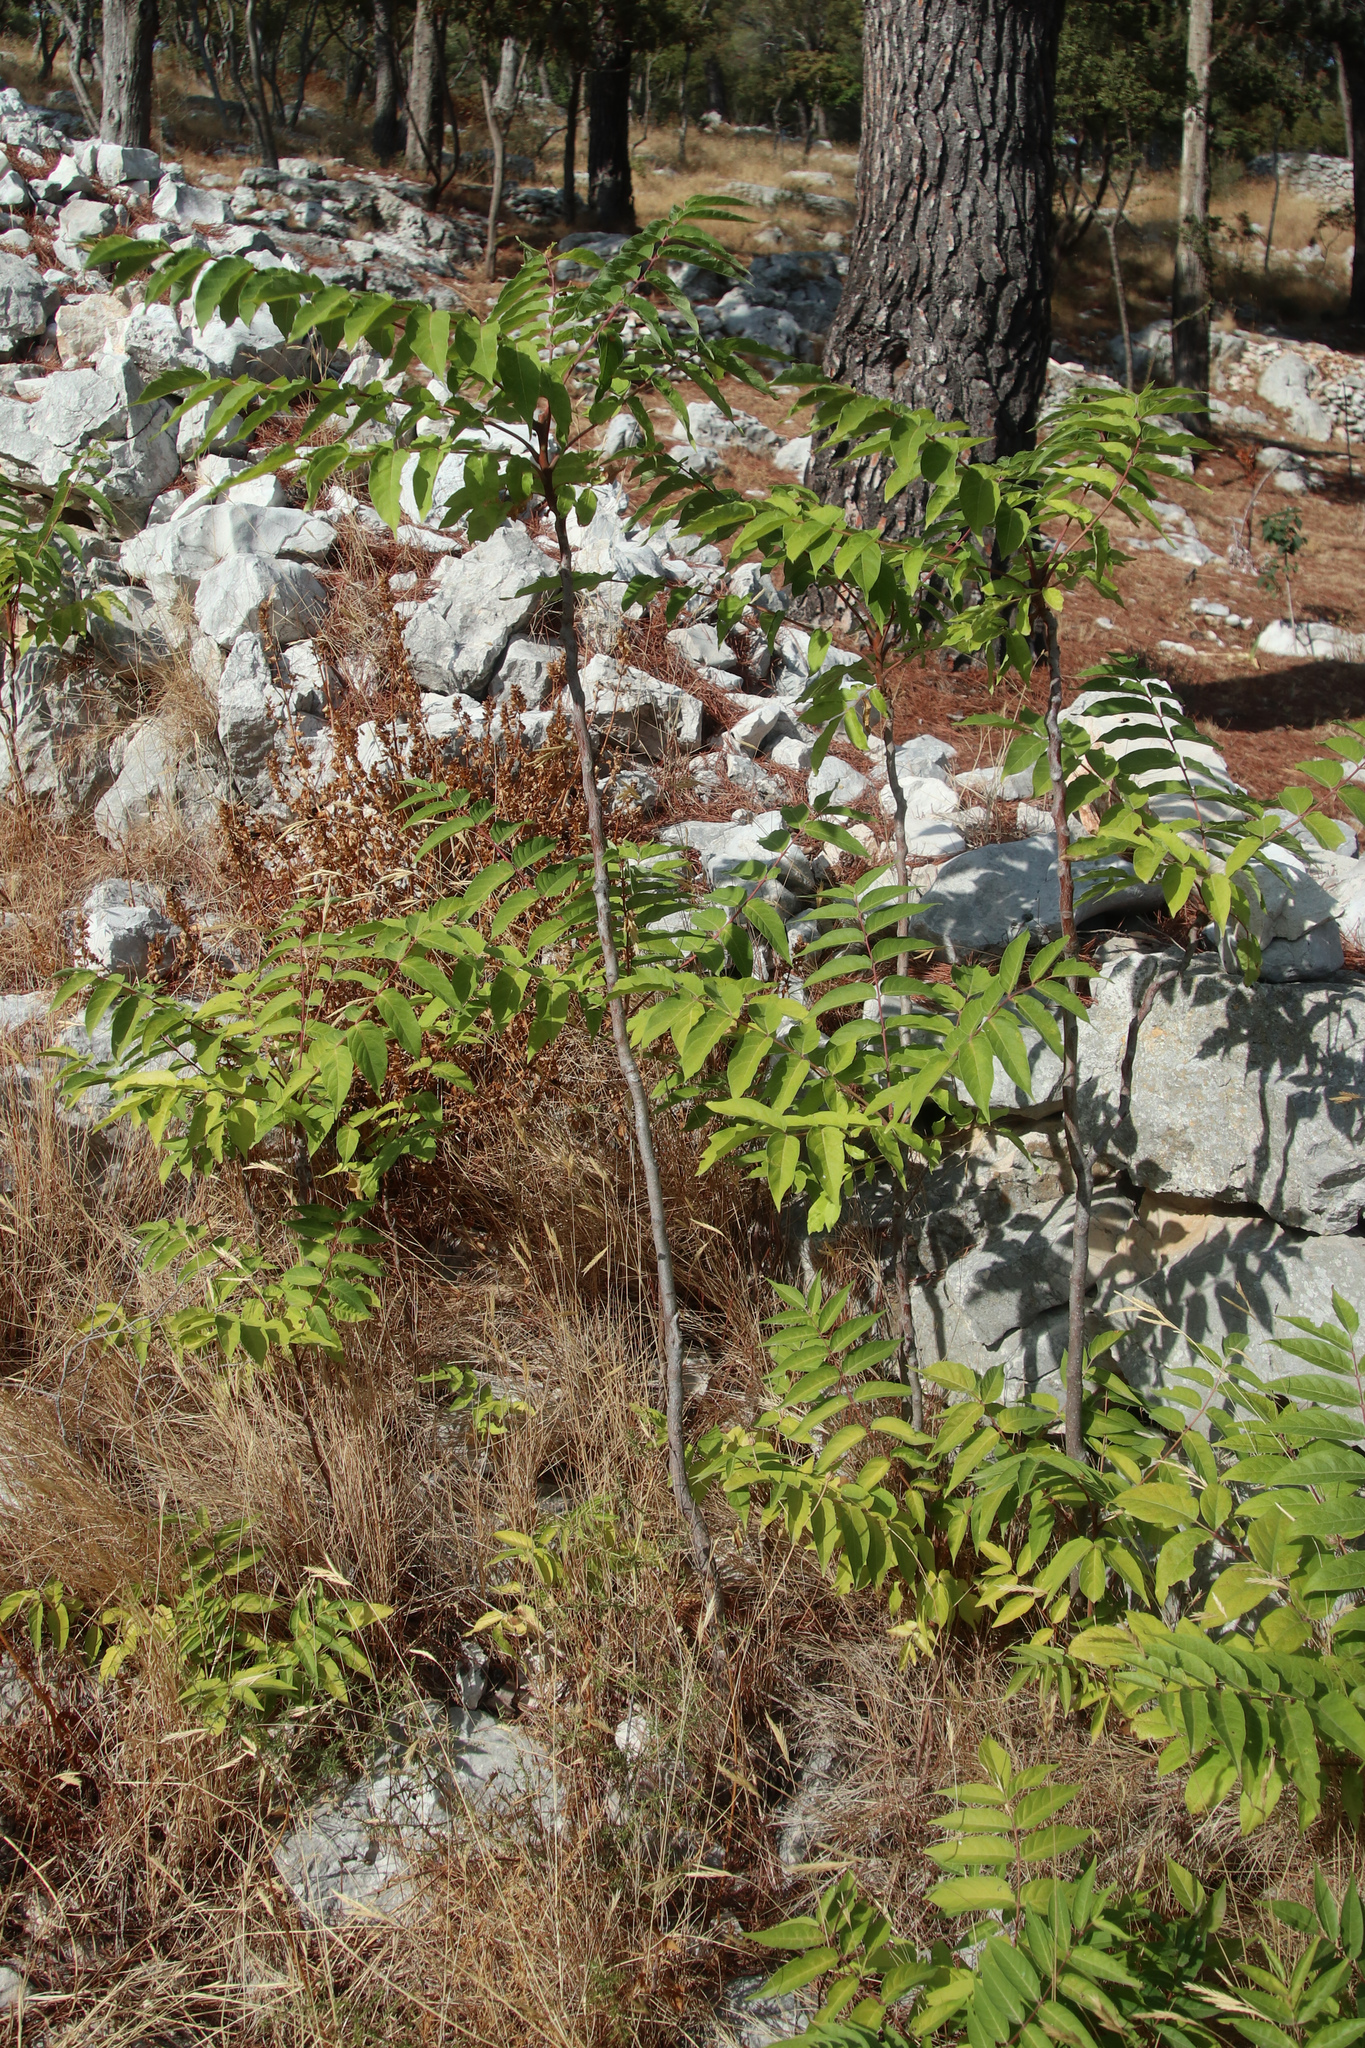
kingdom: Plantae
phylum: Tracheophyta
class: Magnoliopsida
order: Sapindales
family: Simaroubaceae
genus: Ailanthus
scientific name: Ailanthus altissima
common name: Tree-of-heaven
